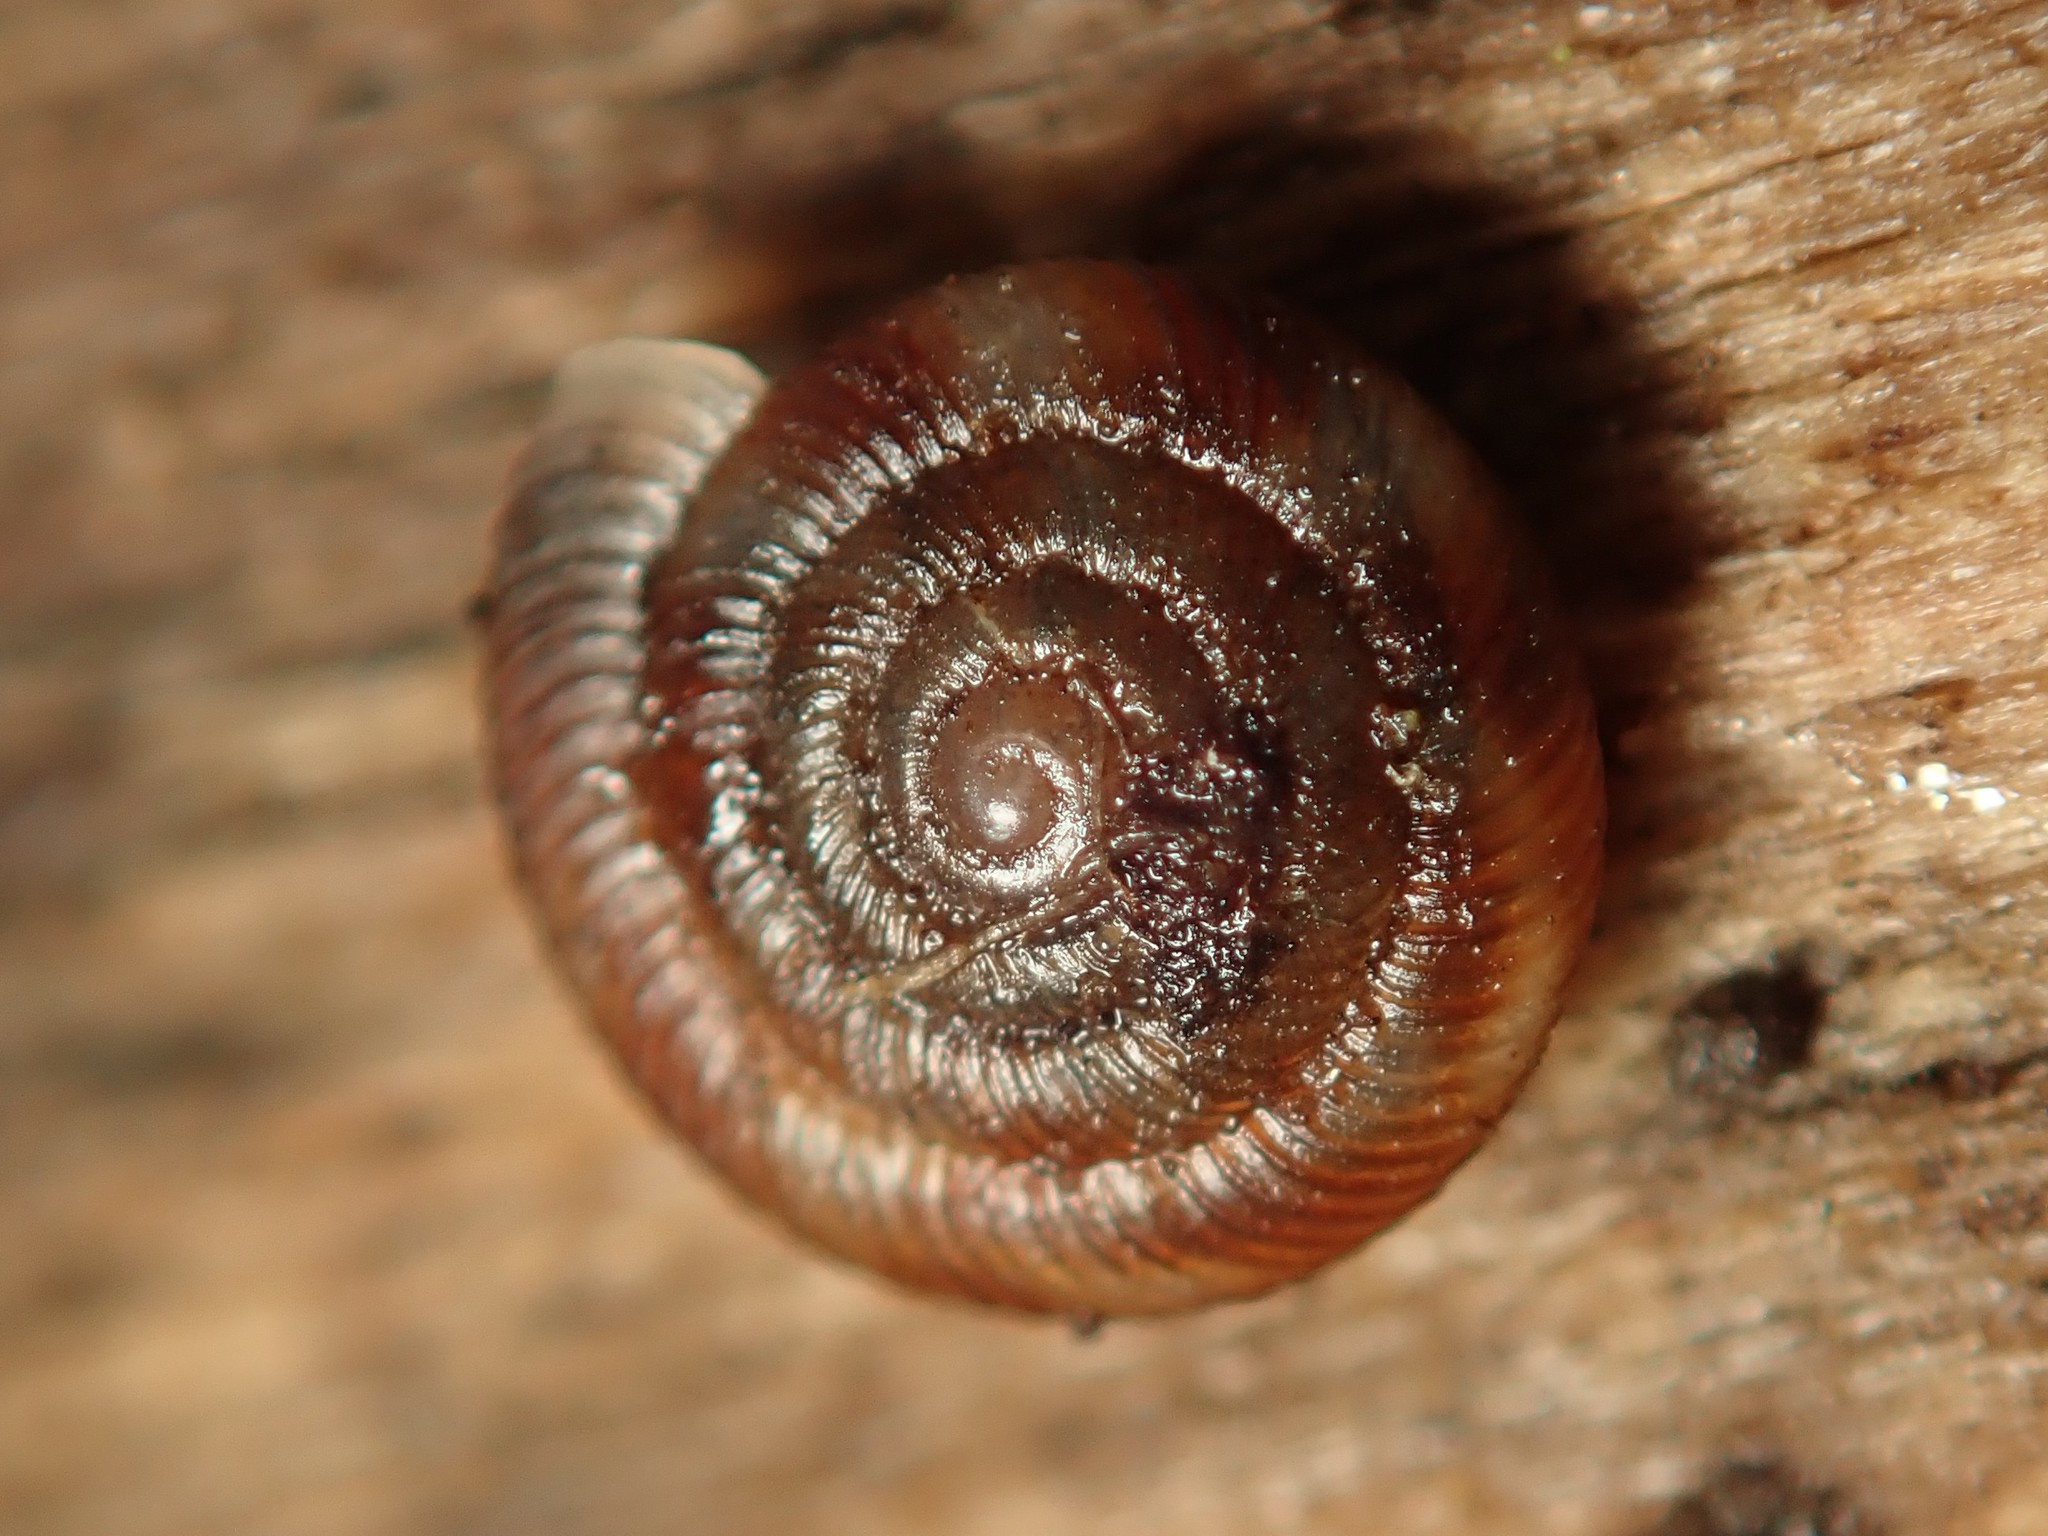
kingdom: Animalia
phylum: Mollusca
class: Gastropoda
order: Stylommatophora
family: Discidae
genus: Discus
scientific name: Discus rotundatus
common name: Rounded snail
